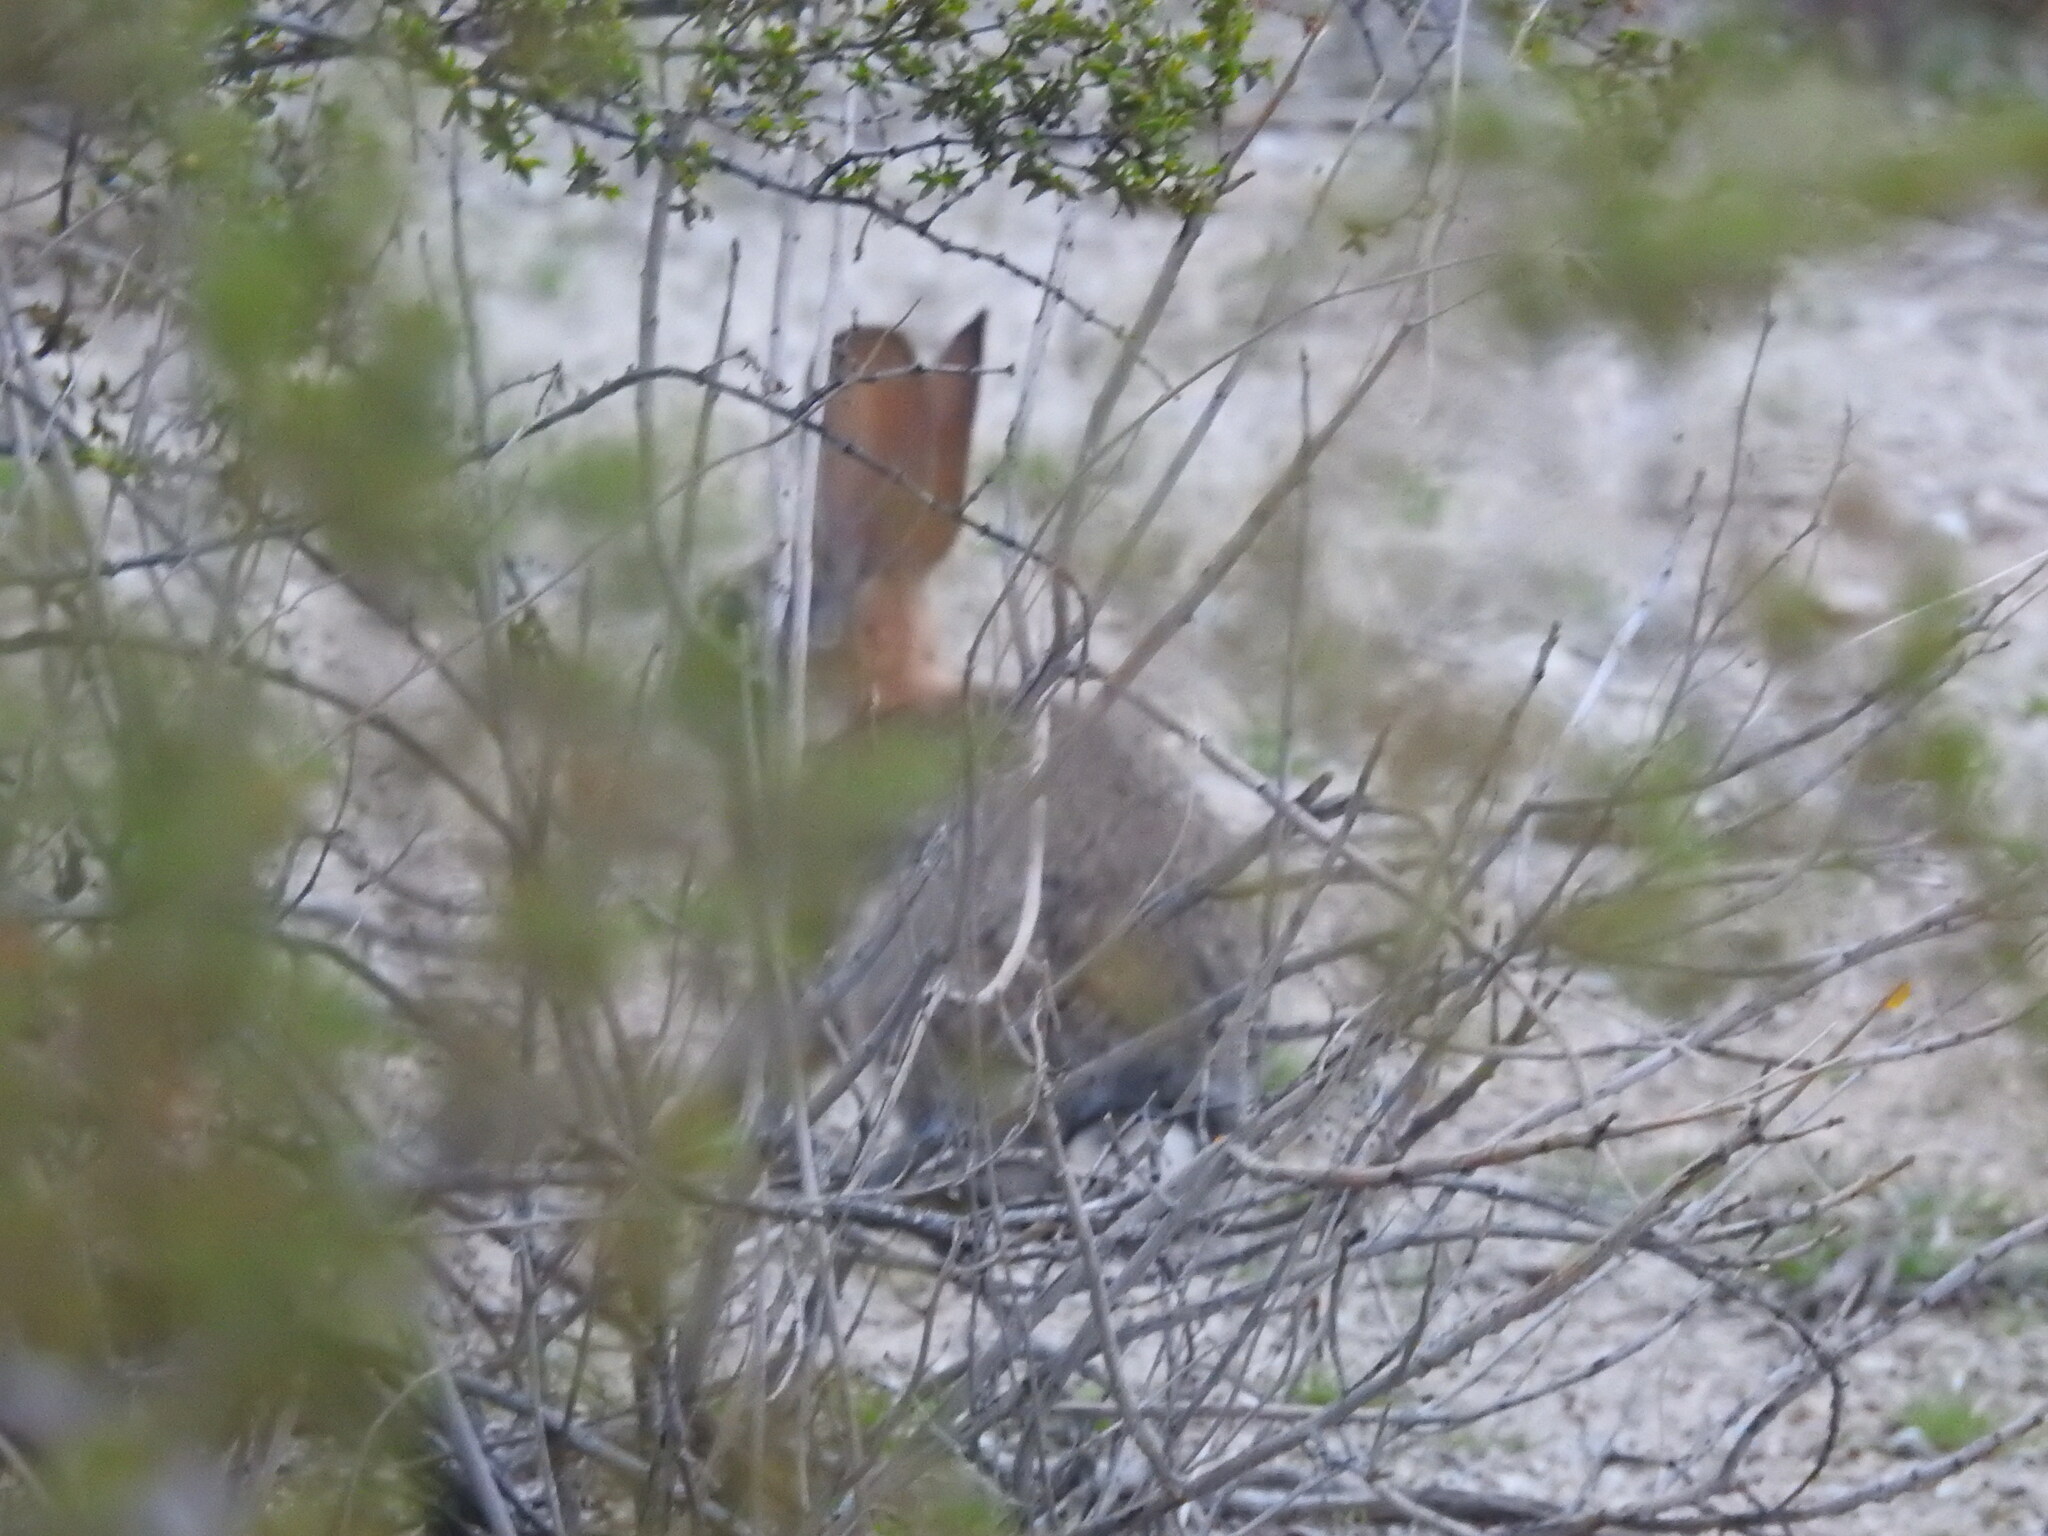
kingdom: Animalia
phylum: Chordata
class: Mammalia
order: Lagomorpha
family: Leporidae
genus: Sylvilagus
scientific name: Sylvilagus audubonii
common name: Desert cottontail
